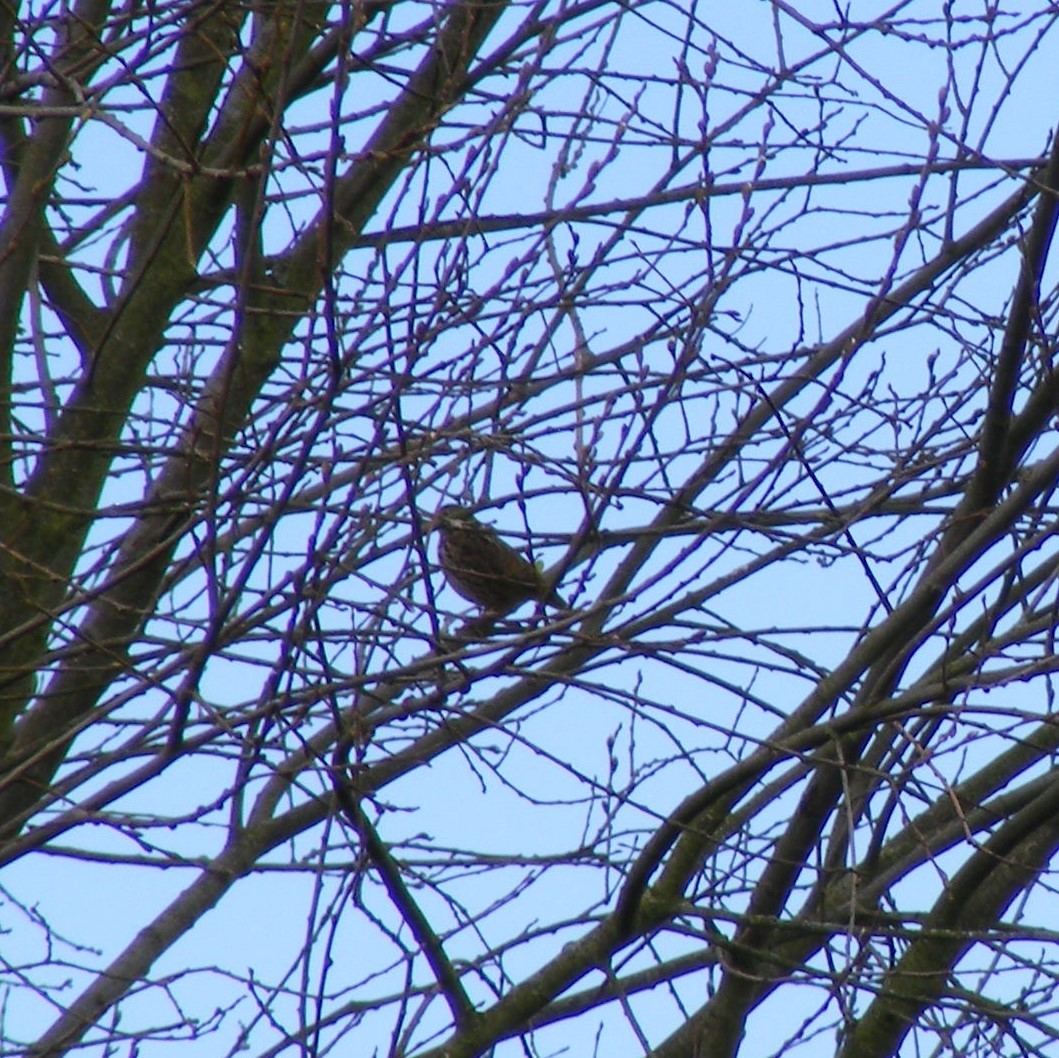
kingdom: Animalia
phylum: Chordata
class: Aves
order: Passeriformes
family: Motacillidae
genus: Anthus
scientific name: Anthus pratensis
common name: Meadow pipit
